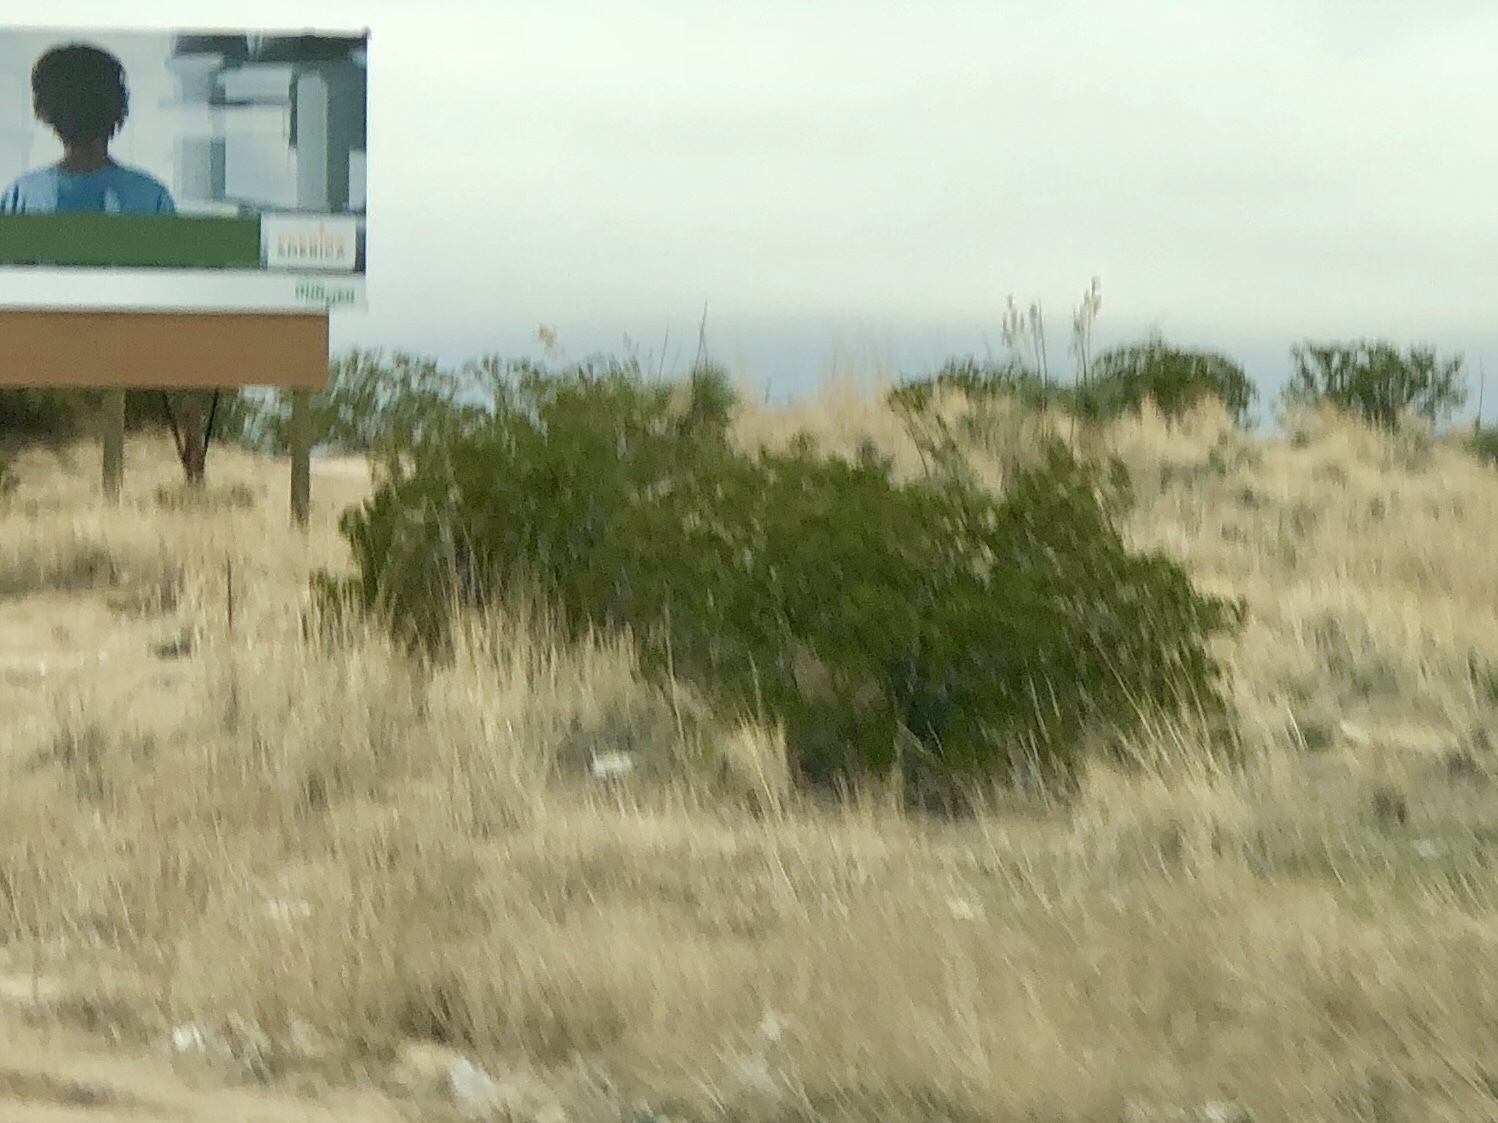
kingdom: Plantae
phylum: Tracheophyta
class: Magnoliopsida
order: Zygophyllales
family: Zygophyllaceae
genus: Larrea
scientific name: Larrea tridentata
